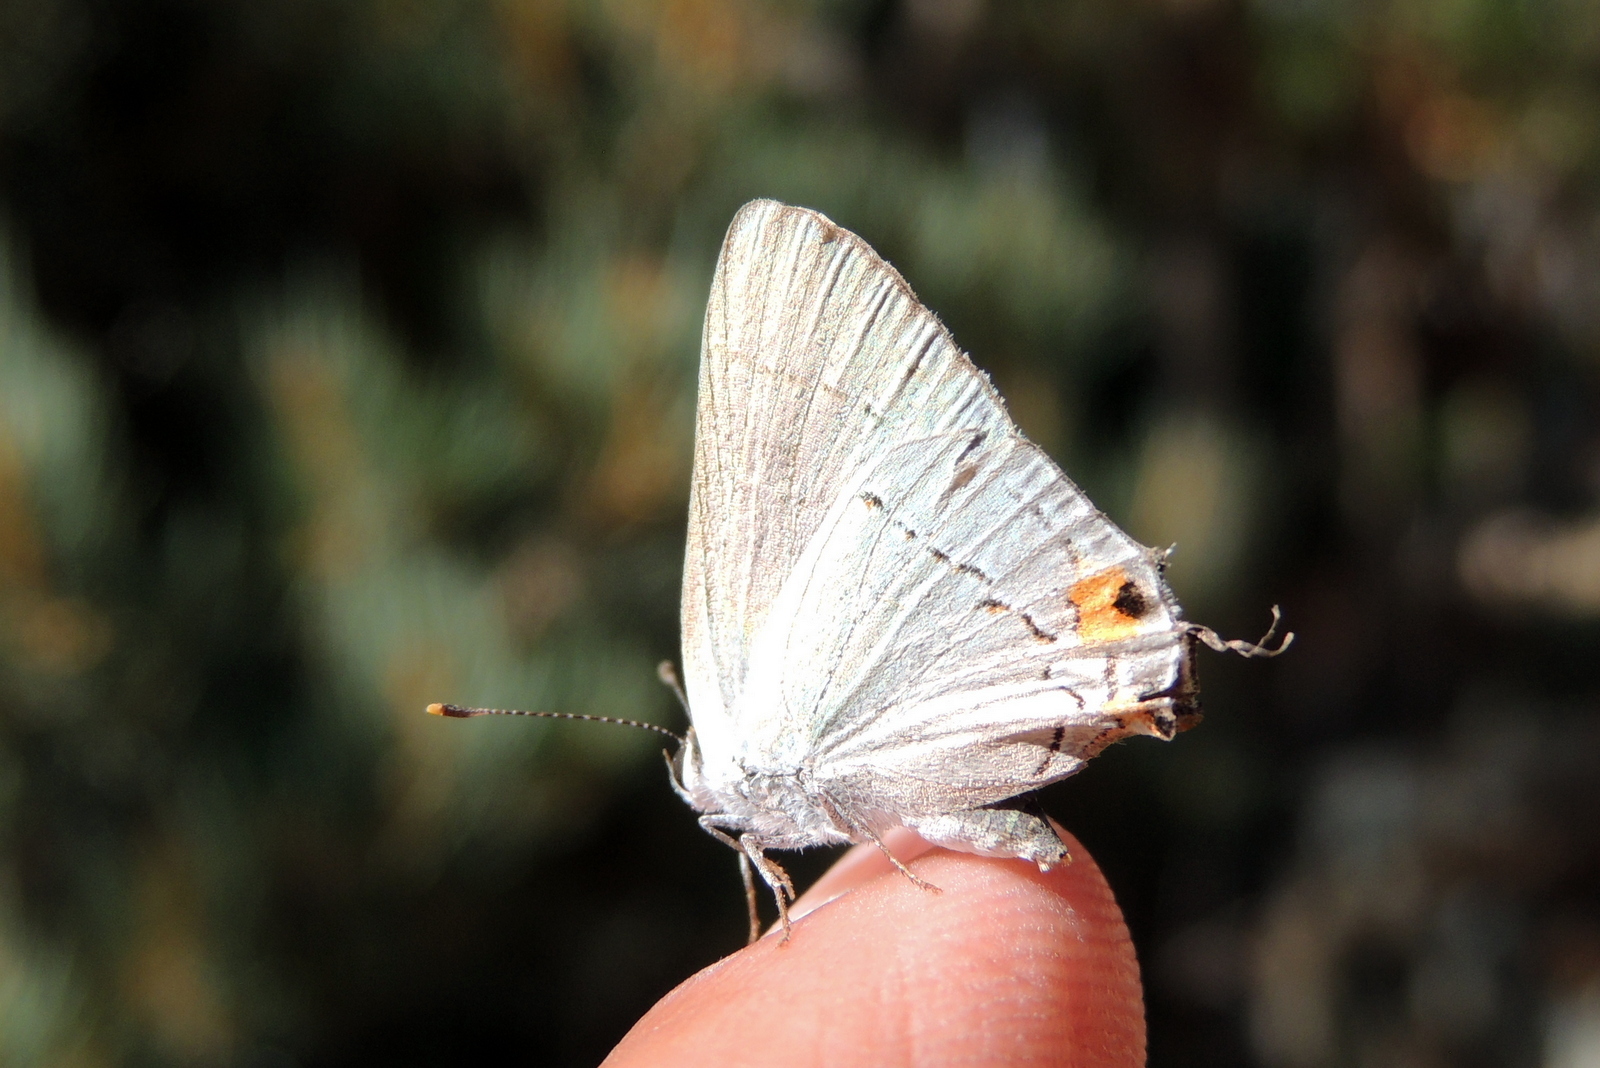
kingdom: Animalia
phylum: Arthropoda
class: Insecta
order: Lepidoptera
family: Lycaenidae
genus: Strymon
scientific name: Strymon melinus
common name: Gray hairstreak
